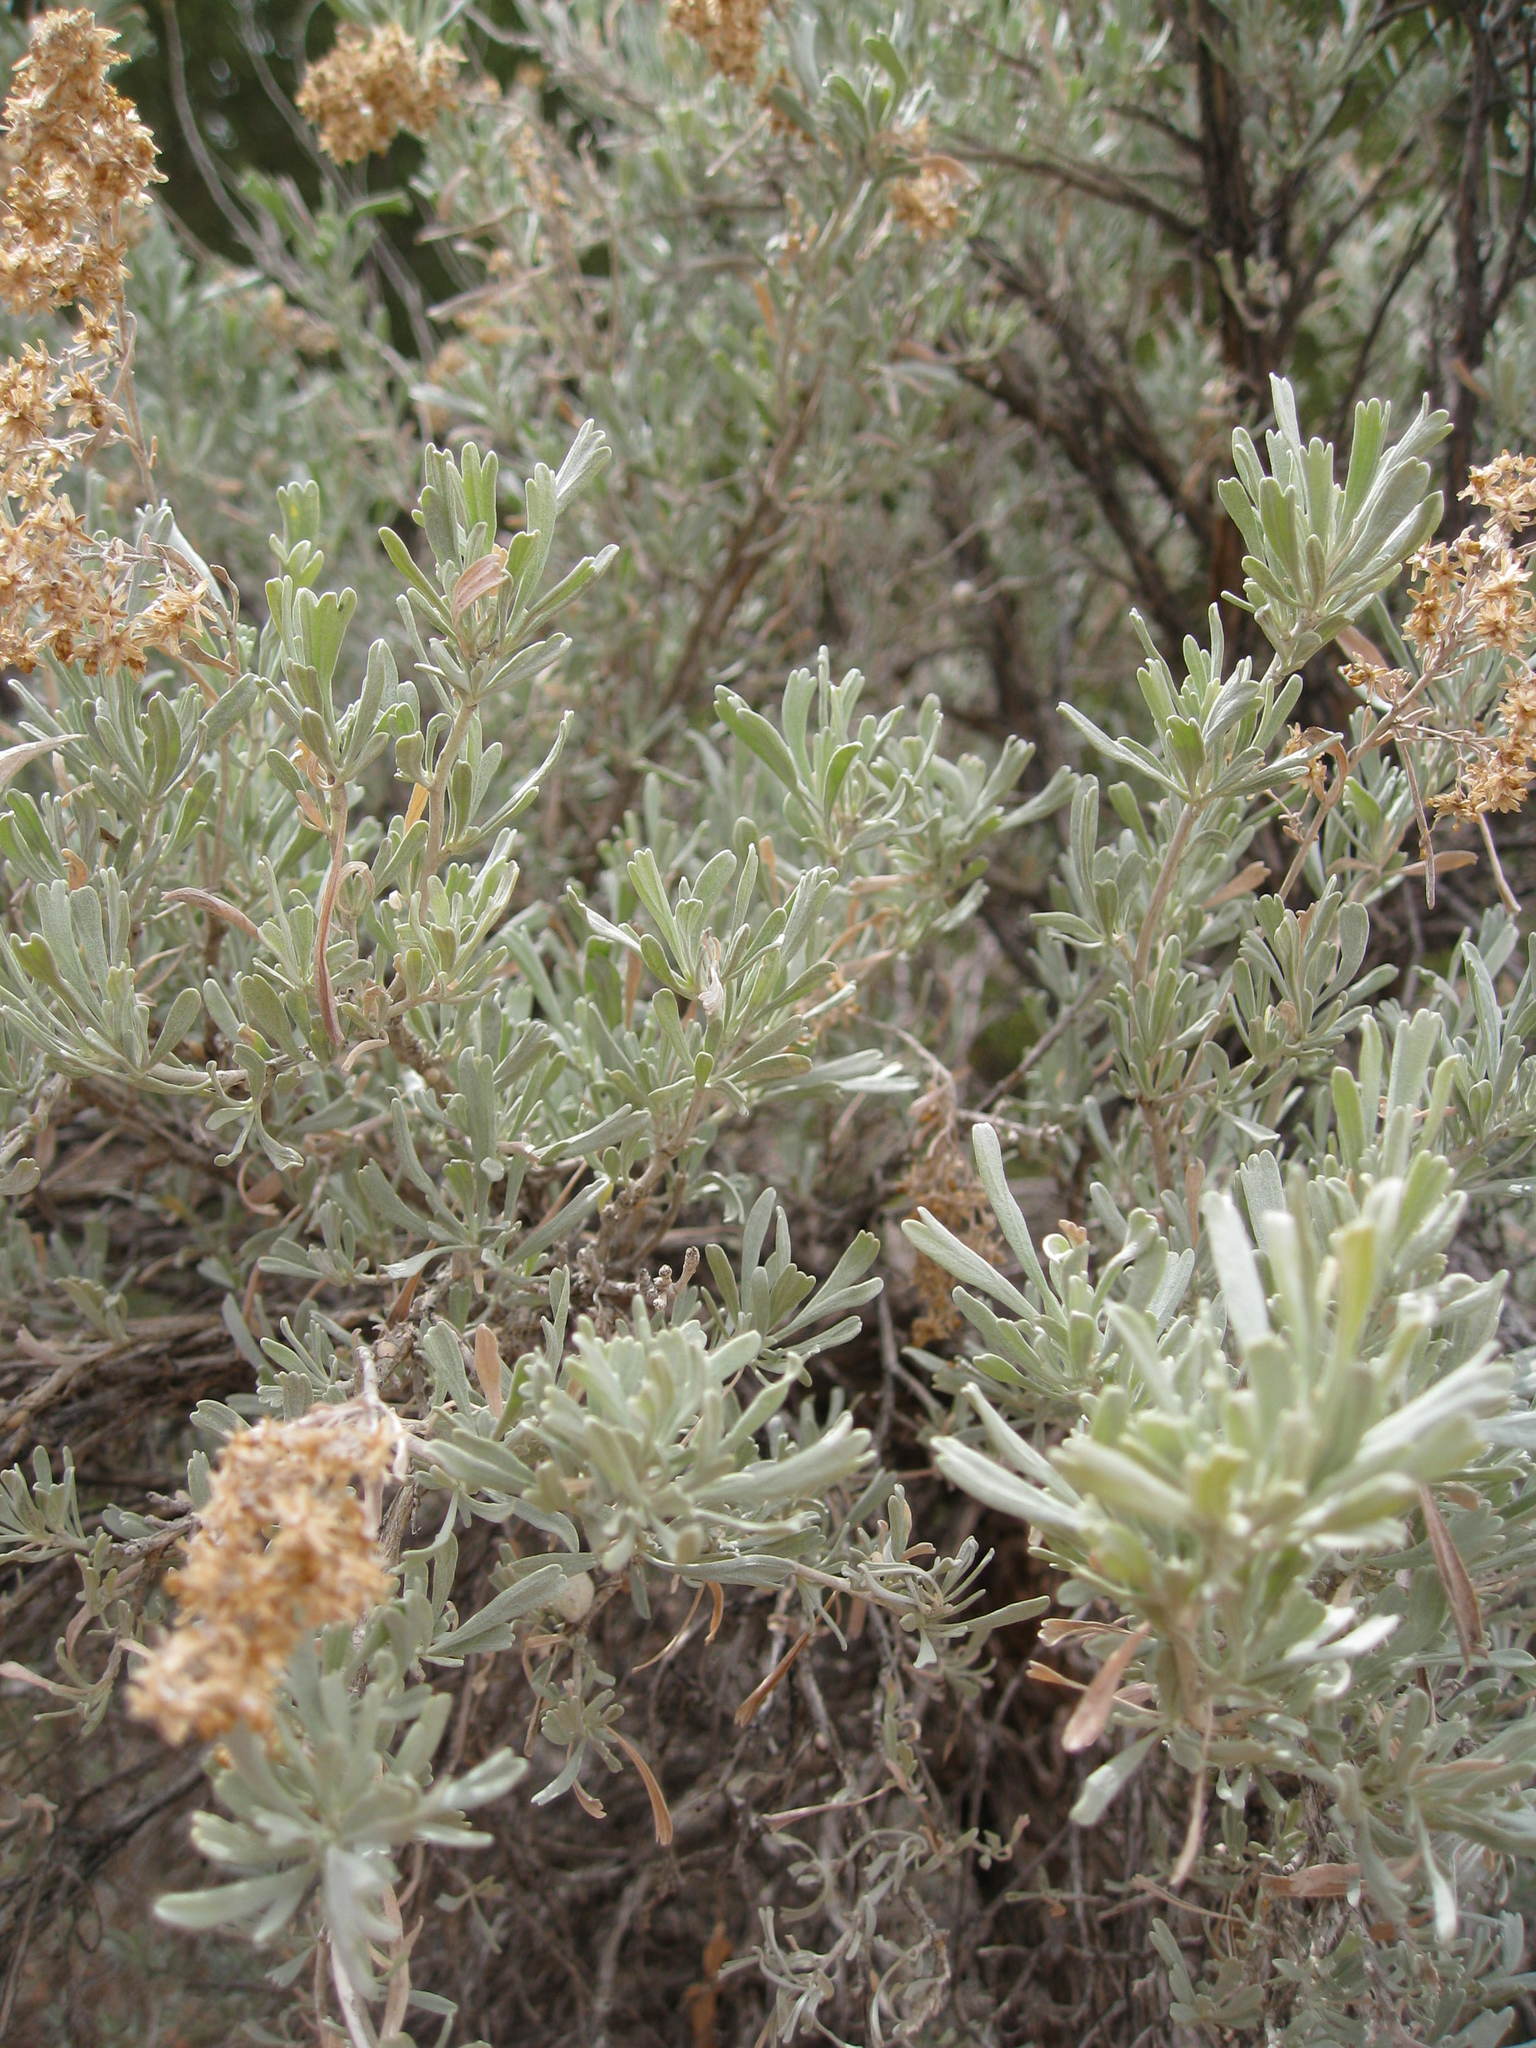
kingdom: Plantae
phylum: Tracheophyta
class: Magnoliopsida
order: Asterales
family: Asteraceae
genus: Artemisia
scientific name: Artemisia tridentata
